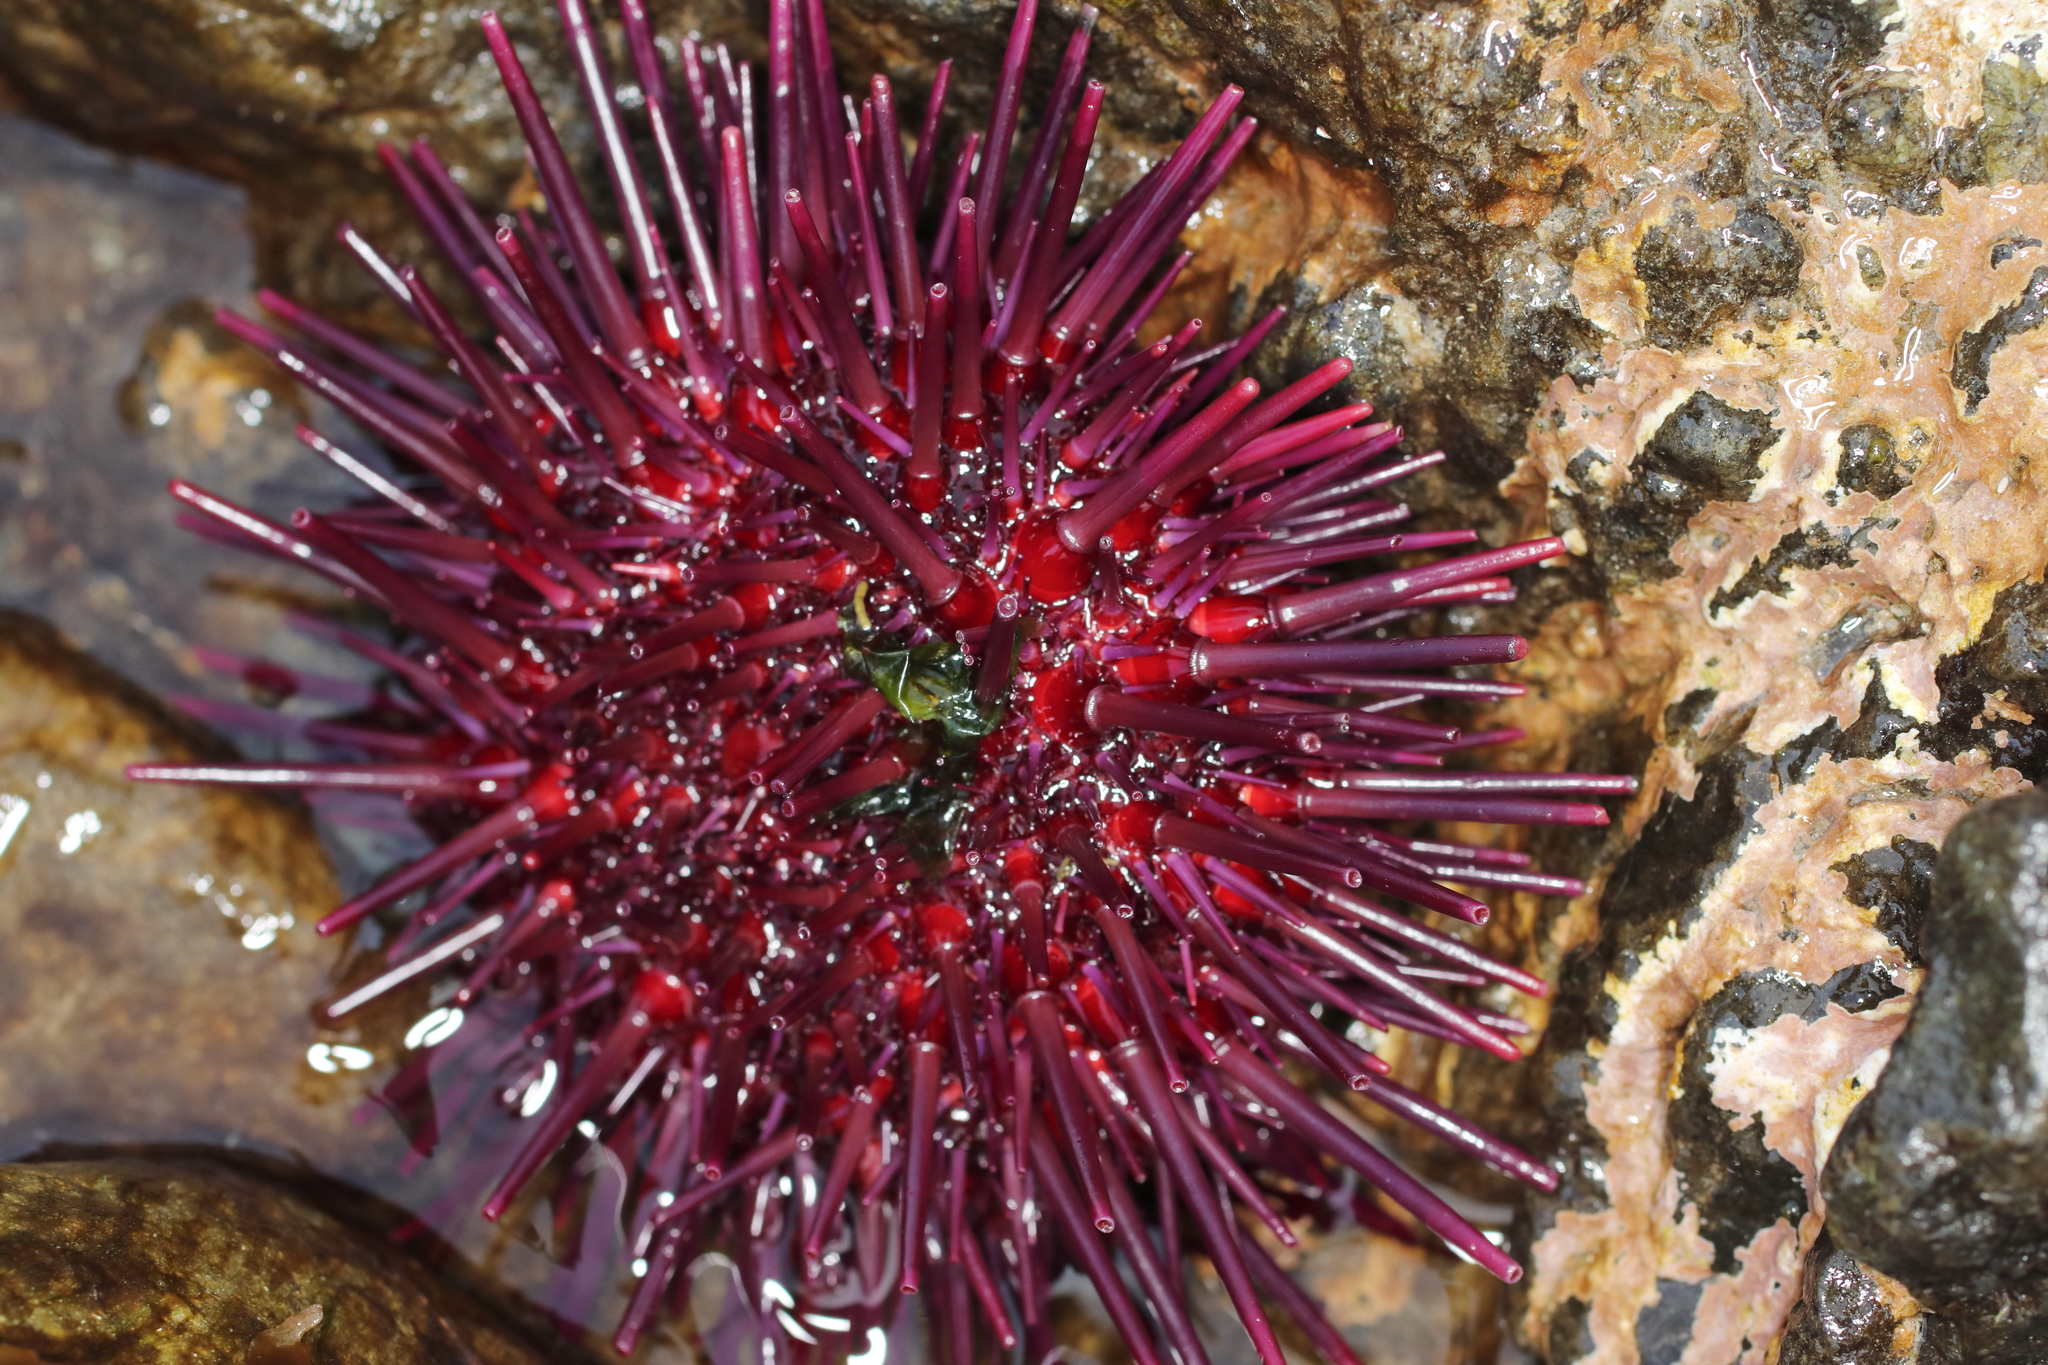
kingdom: Animalia
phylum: Echinodermata
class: Echinoidea
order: Camarodonta
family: Strongylocentrotidae
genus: Mesocentrotus
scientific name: Mesocentrotus franciscanus
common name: Red sea urchin
